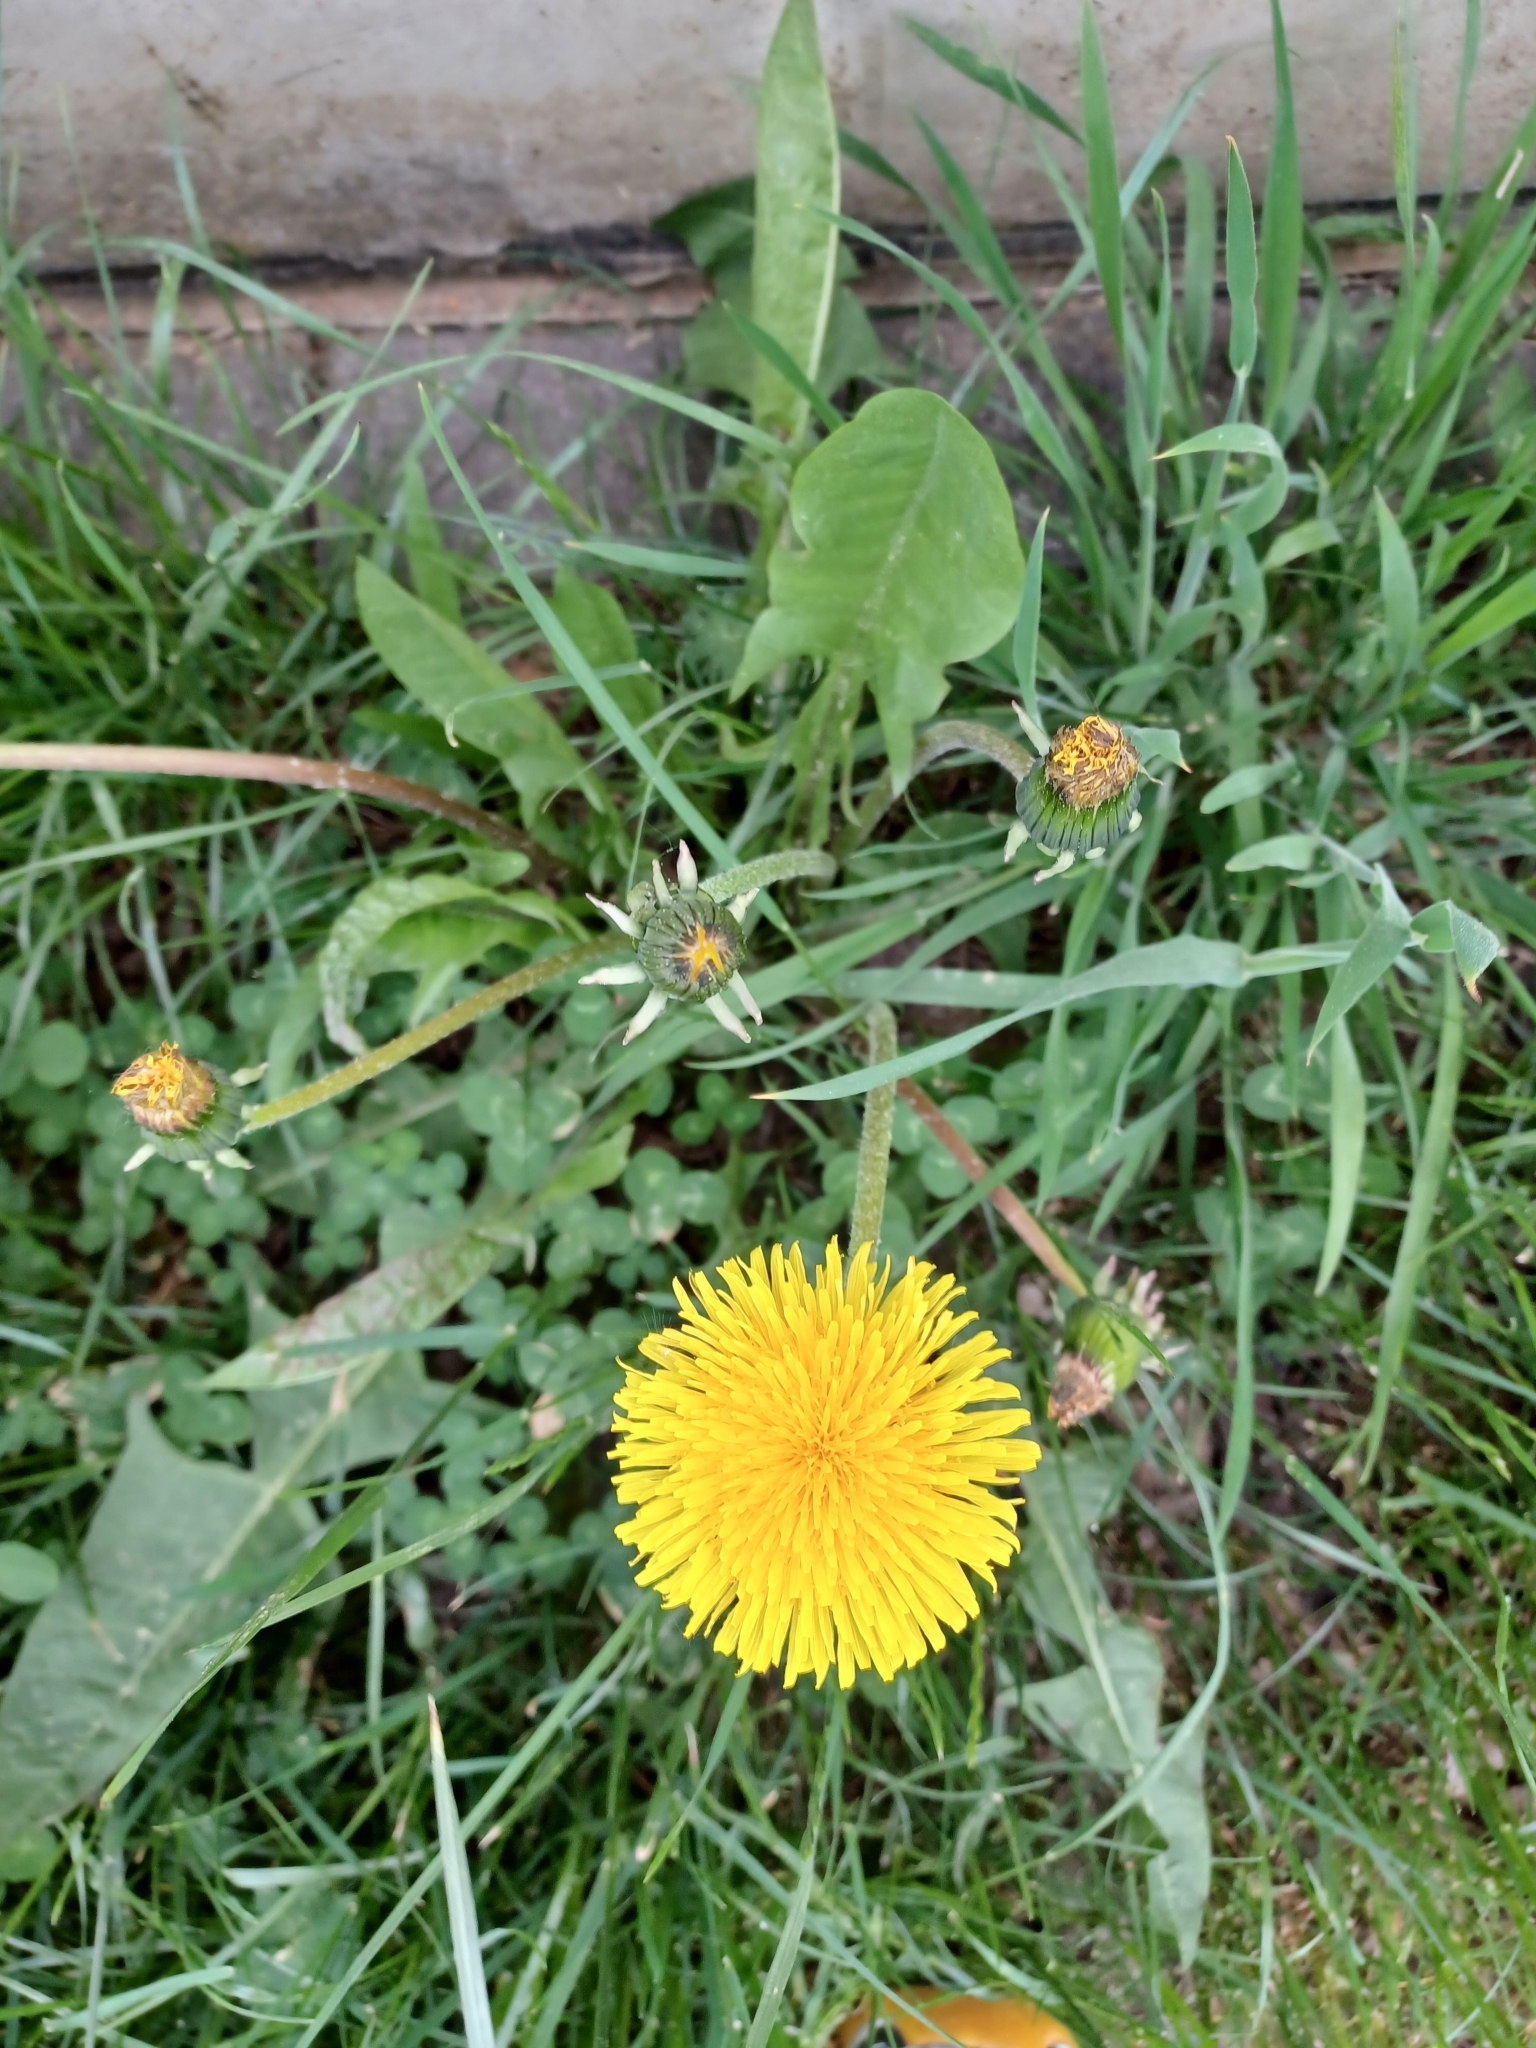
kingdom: Plantae
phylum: Tracheophyta
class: Magnoliopsida
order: Asterales
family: Asteraceae
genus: Taraxacum
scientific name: Taraxacum officinale
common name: Common dandelion
